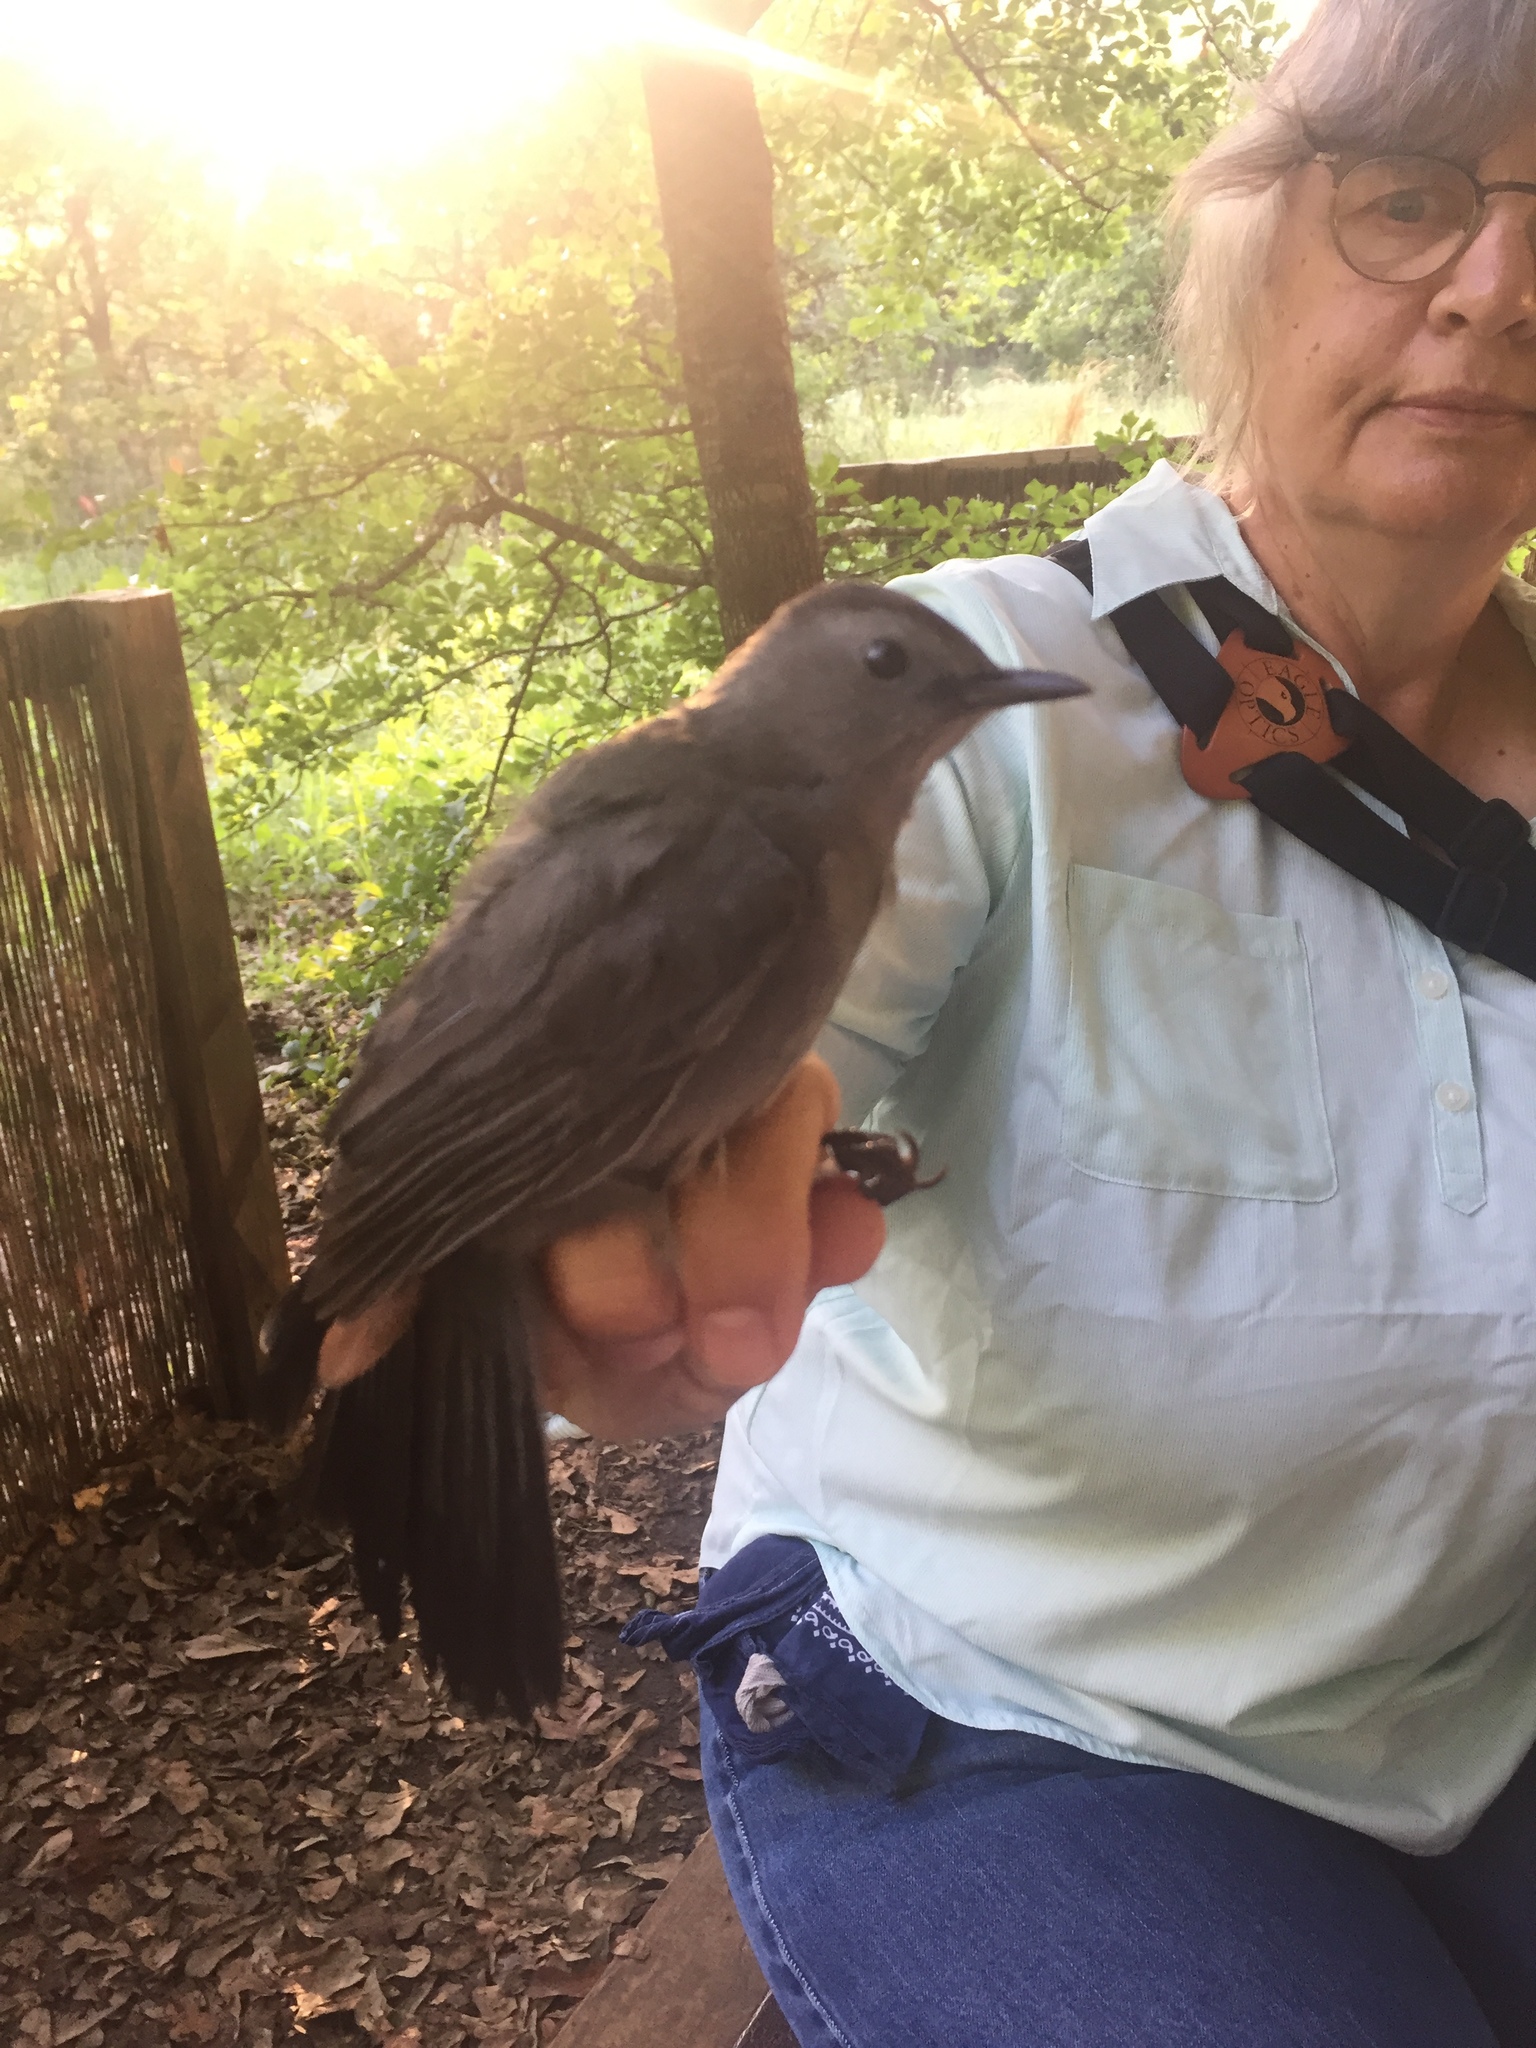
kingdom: Animalia
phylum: Chordata
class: Aves
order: Passeriformes
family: Mimidae
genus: Dumetella
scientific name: Dumetella carolinensis
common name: Gray catbird
